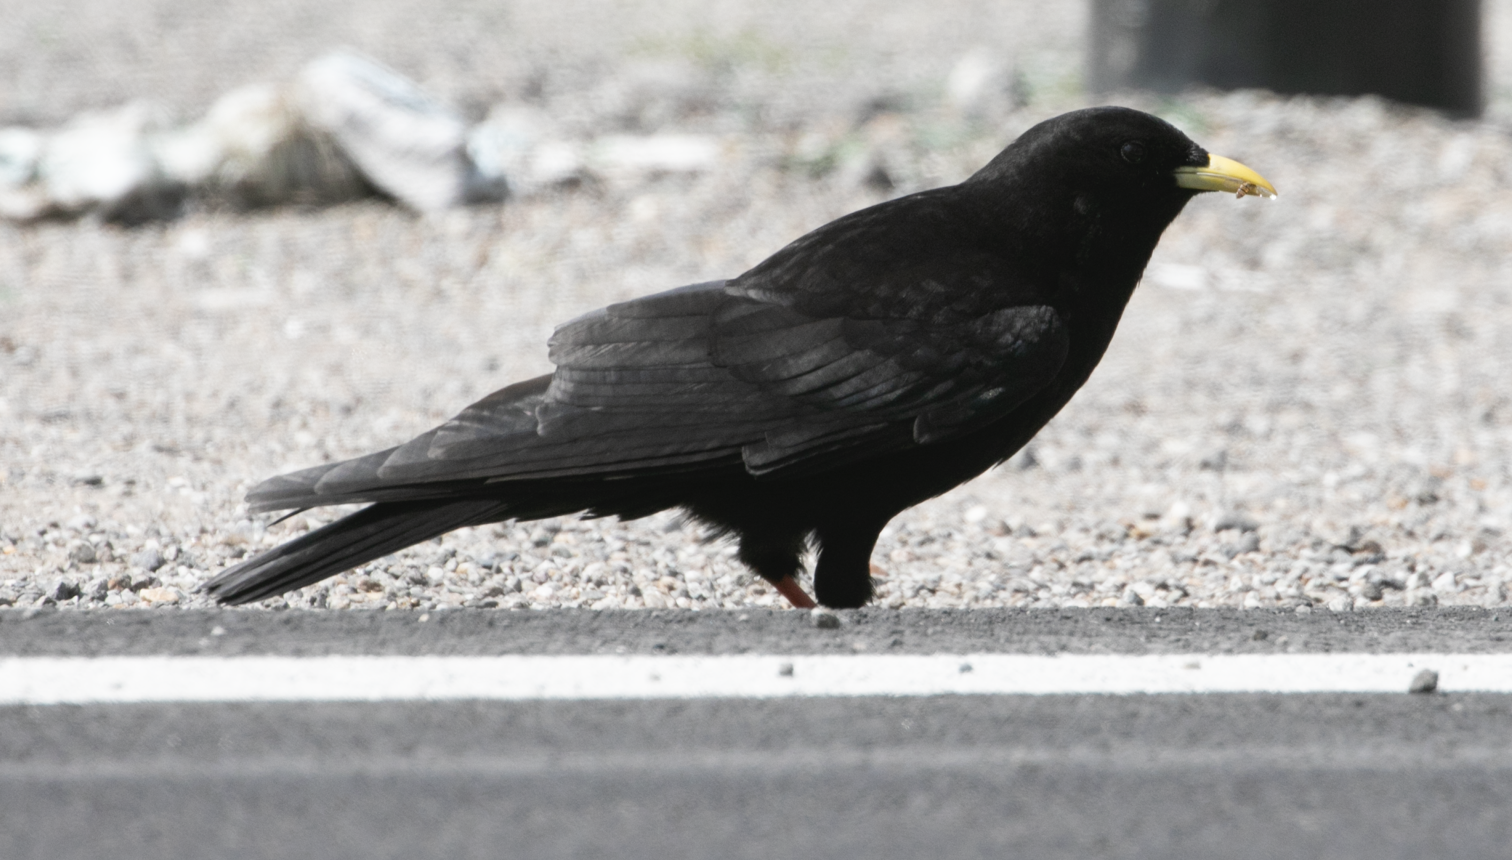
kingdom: Animalia
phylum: Chordata
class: Aves
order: Passeriformes
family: Corvidae
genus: Pyrrhocorax
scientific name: Pyrrhocorax graculus
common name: Alpine chough
